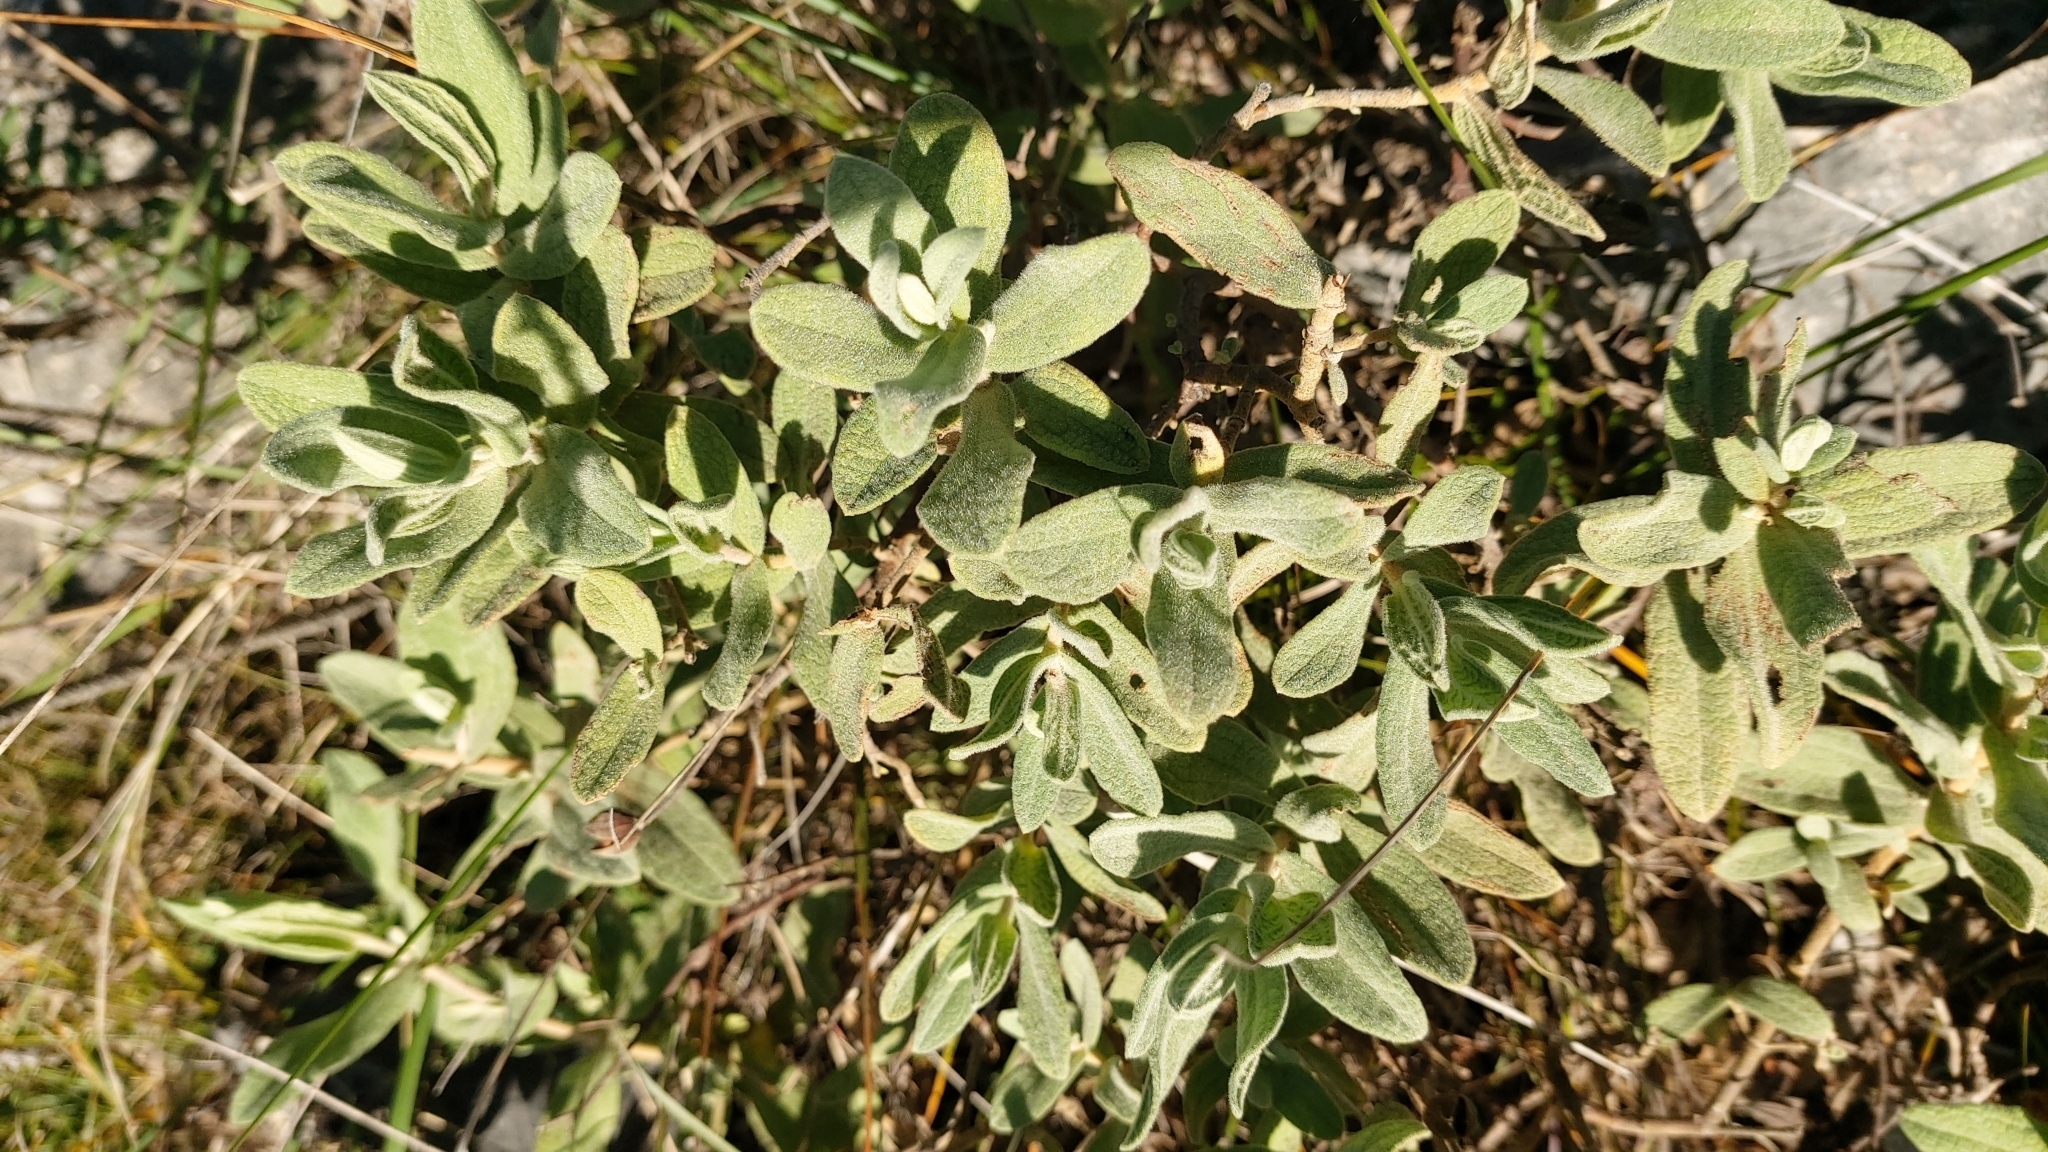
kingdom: Plantae
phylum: Tracheophyta
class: Magnoliopsida
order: Malvales
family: Cistaceae
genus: Cistus
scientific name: Cistus albidus
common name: White-leaf rock-rose
